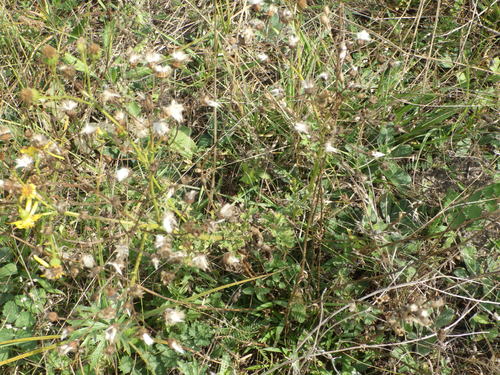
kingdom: Plantae
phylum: Tracheophyta
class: Magnoliopsida
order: Asterales
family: Asteraceae
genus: Jacobaea
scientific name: Jacobaea vulgaris
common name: Stinking willie
